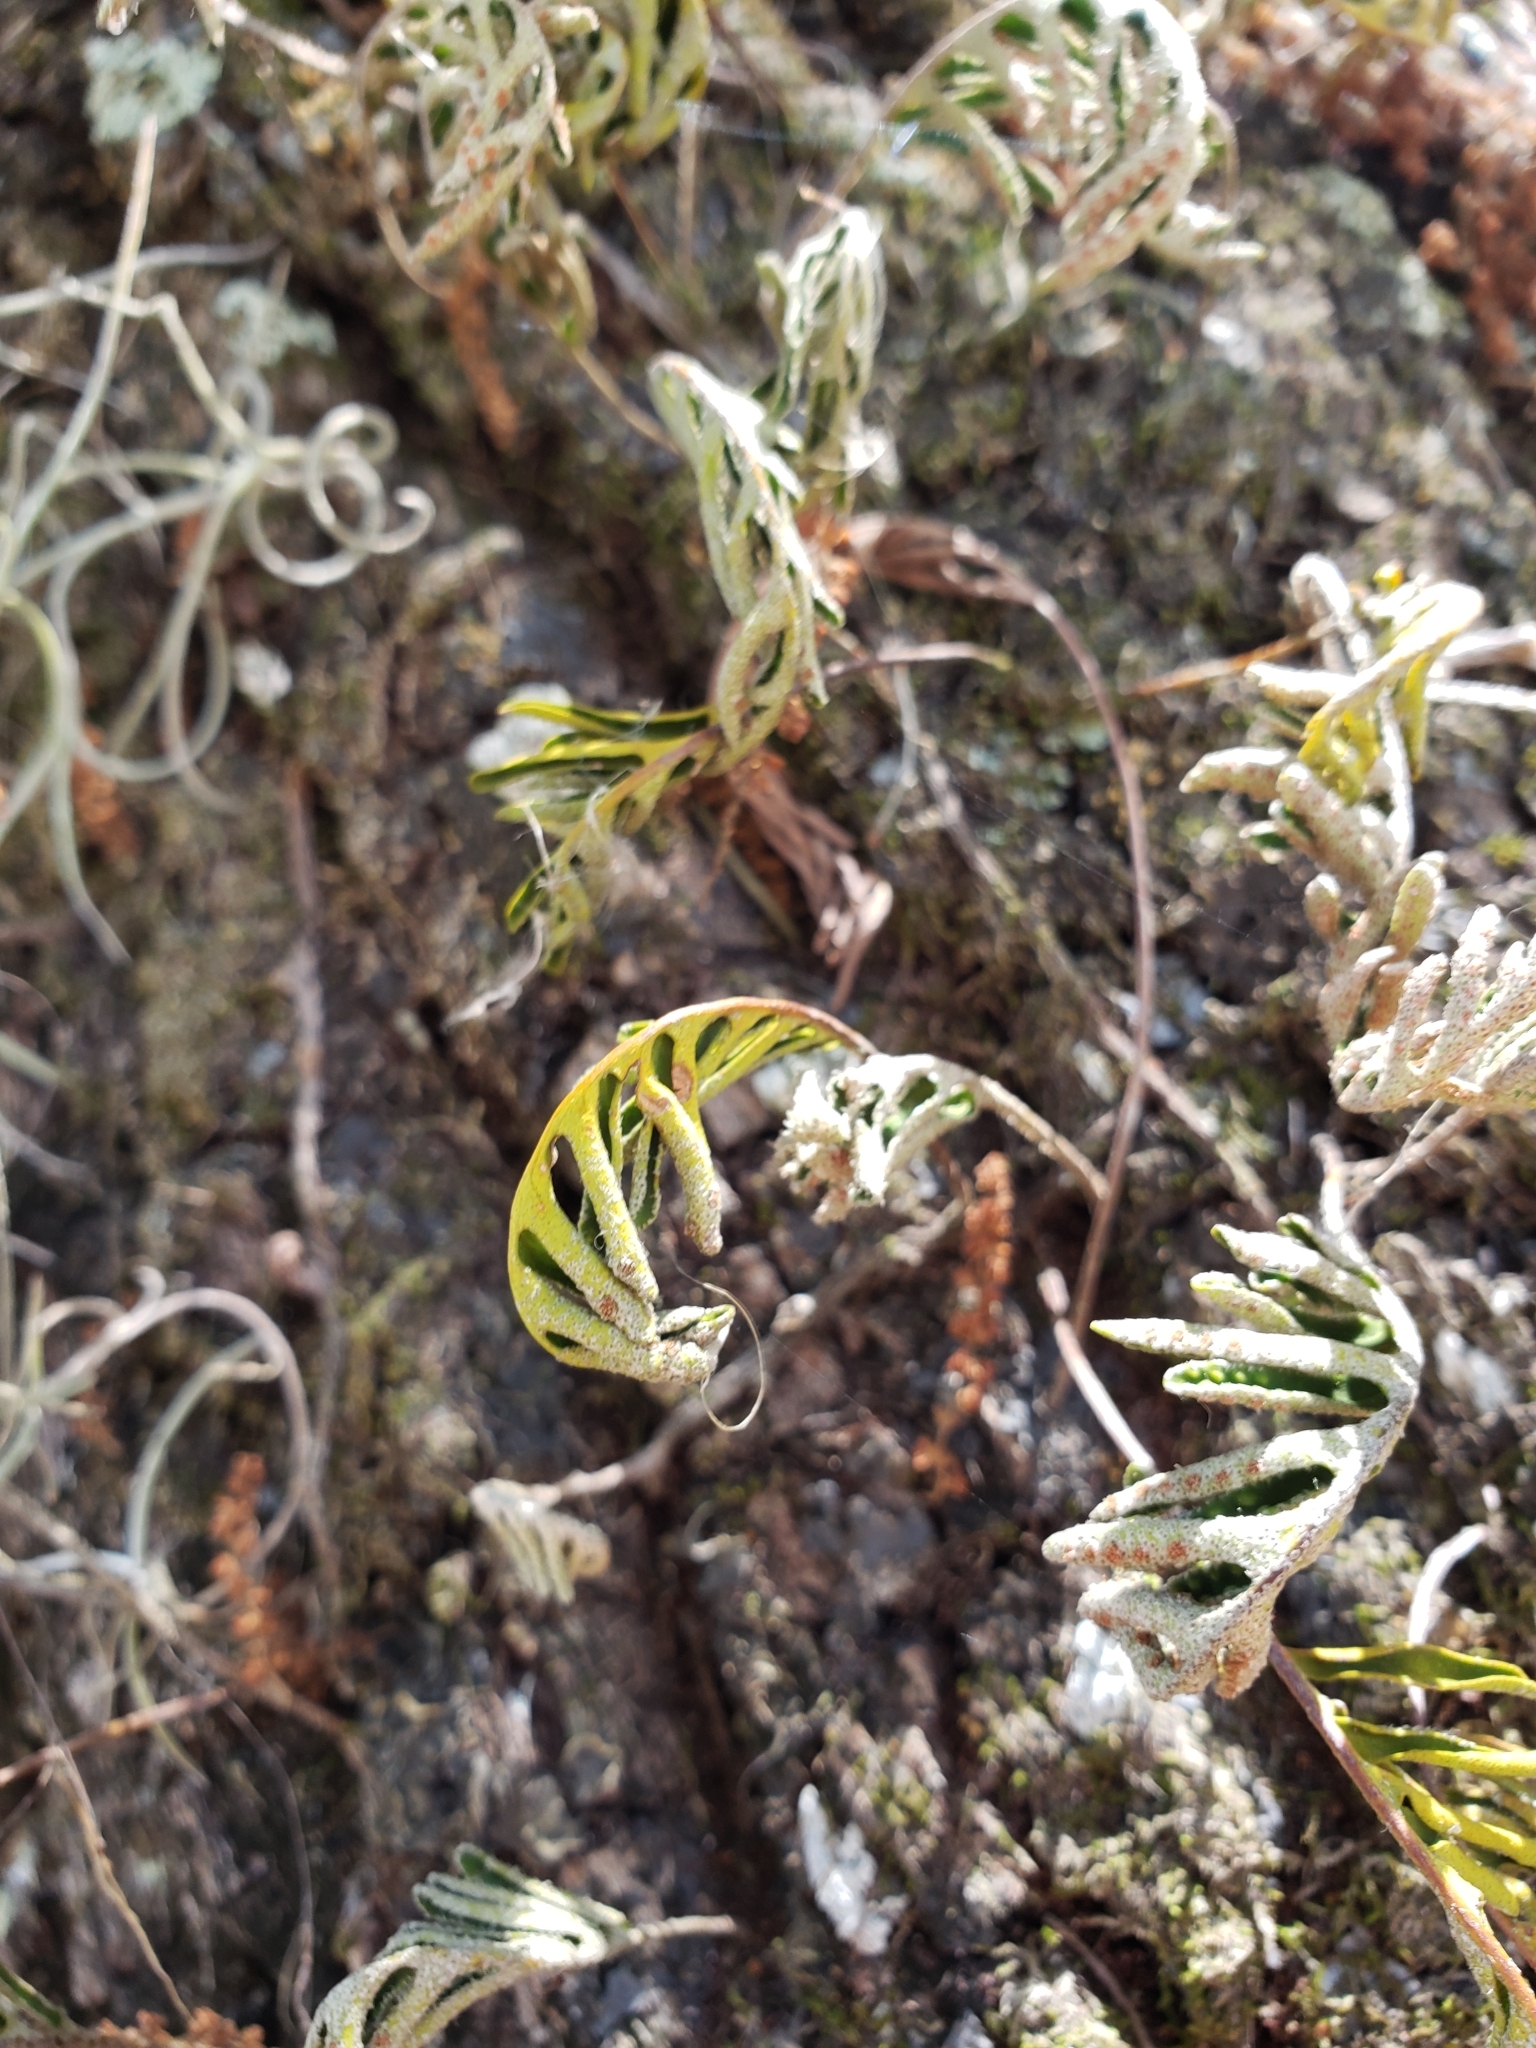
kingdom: Plantae
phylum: Tracheophyta
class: Polypodiopsida
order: Polypodiales
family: Polypodiaceae
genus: Pleopeltis
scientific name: Pleopeltis michauxiana
